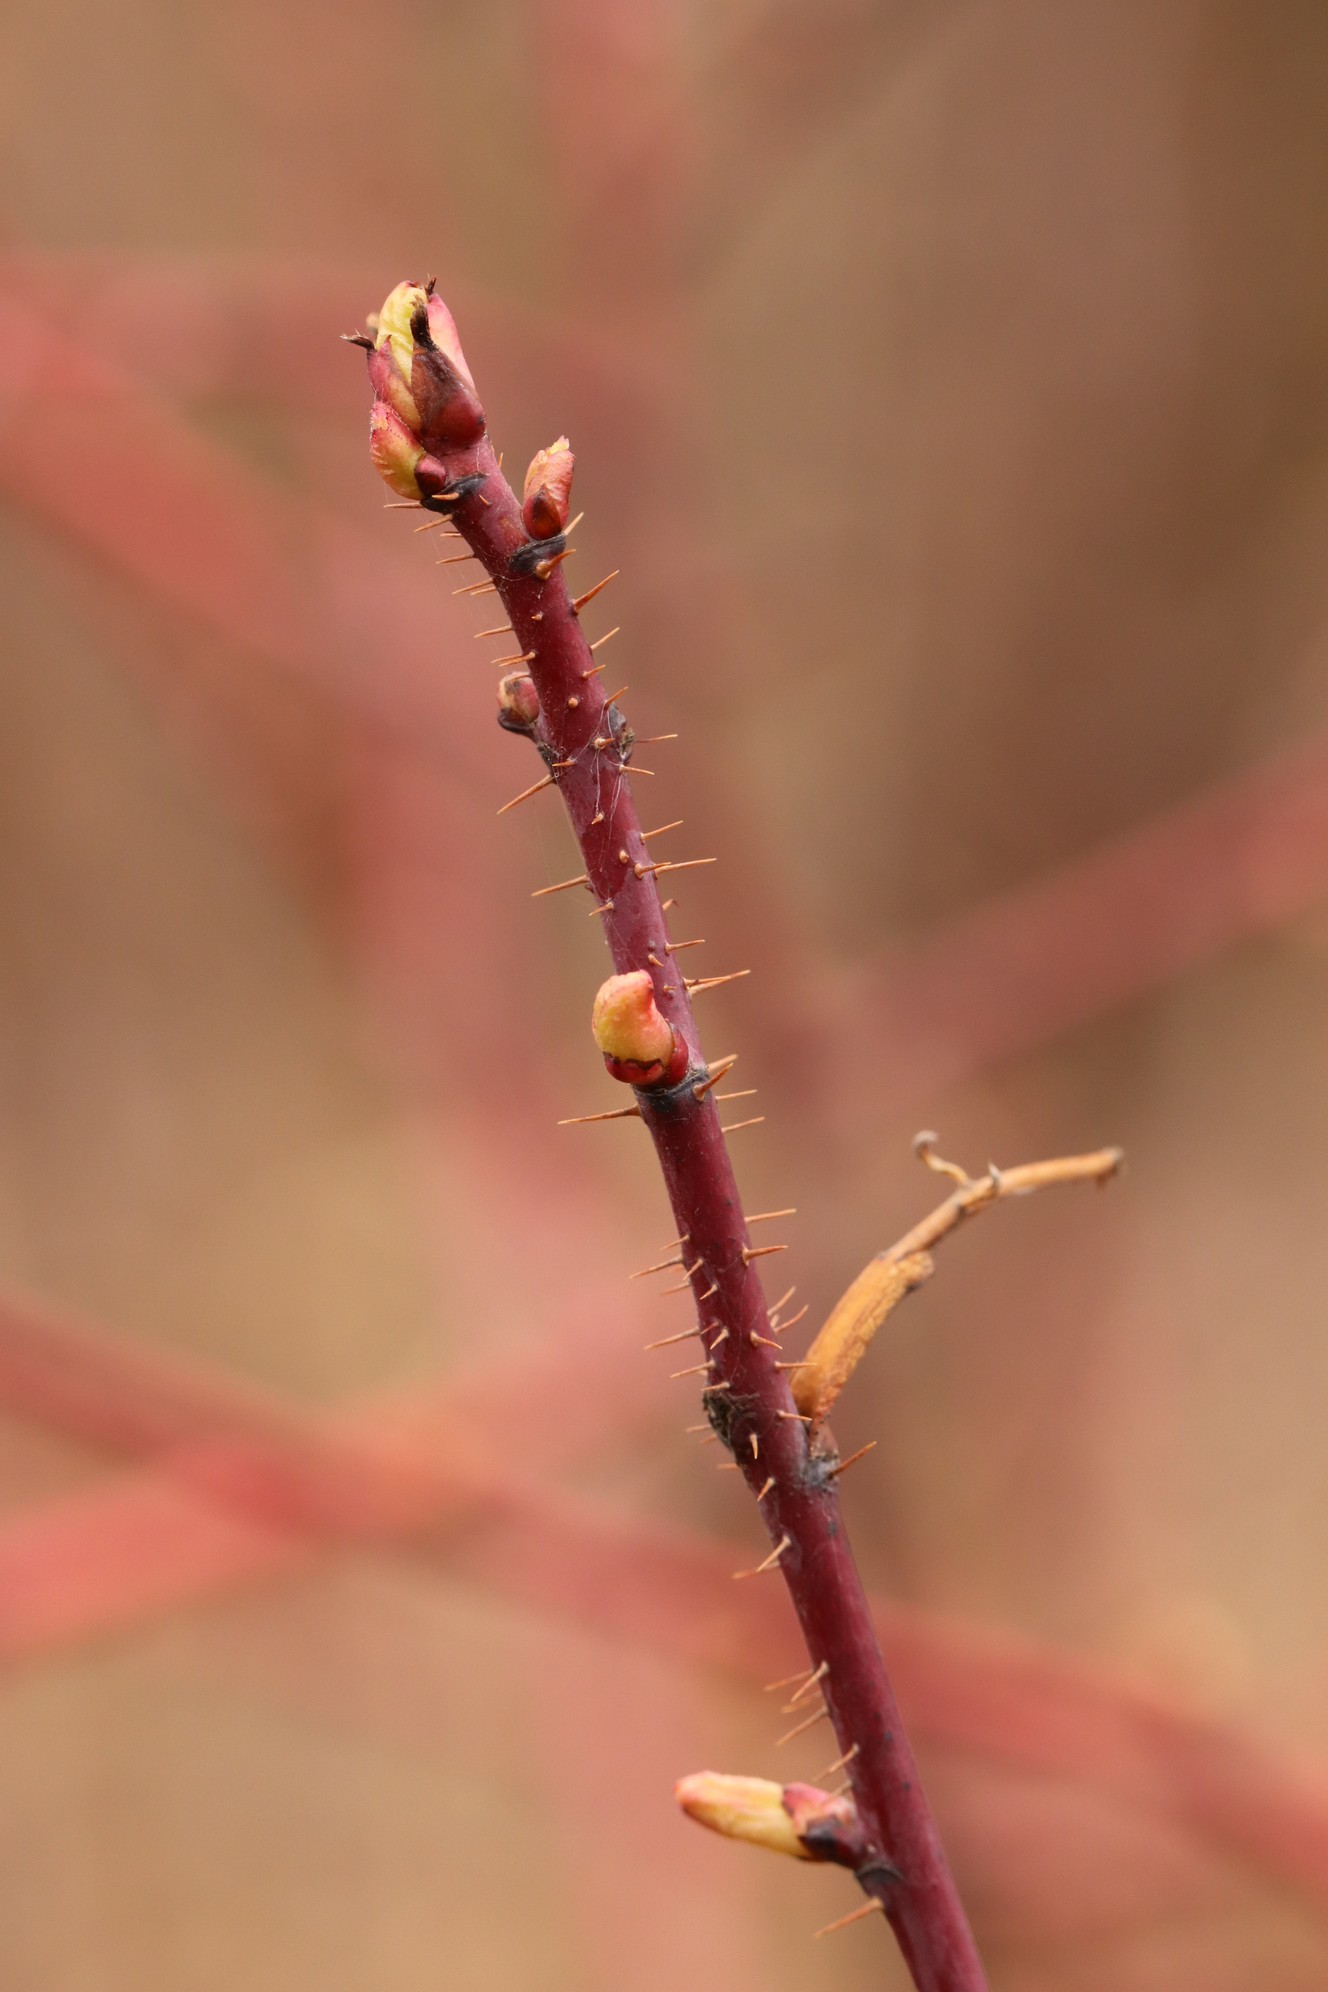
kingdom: Plantae
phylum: Tracheophyta
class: Magnoliopsida
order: Rosales
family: Rosaceae
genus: Rosa
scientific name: Rosa acicularis
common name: Prickly rose
